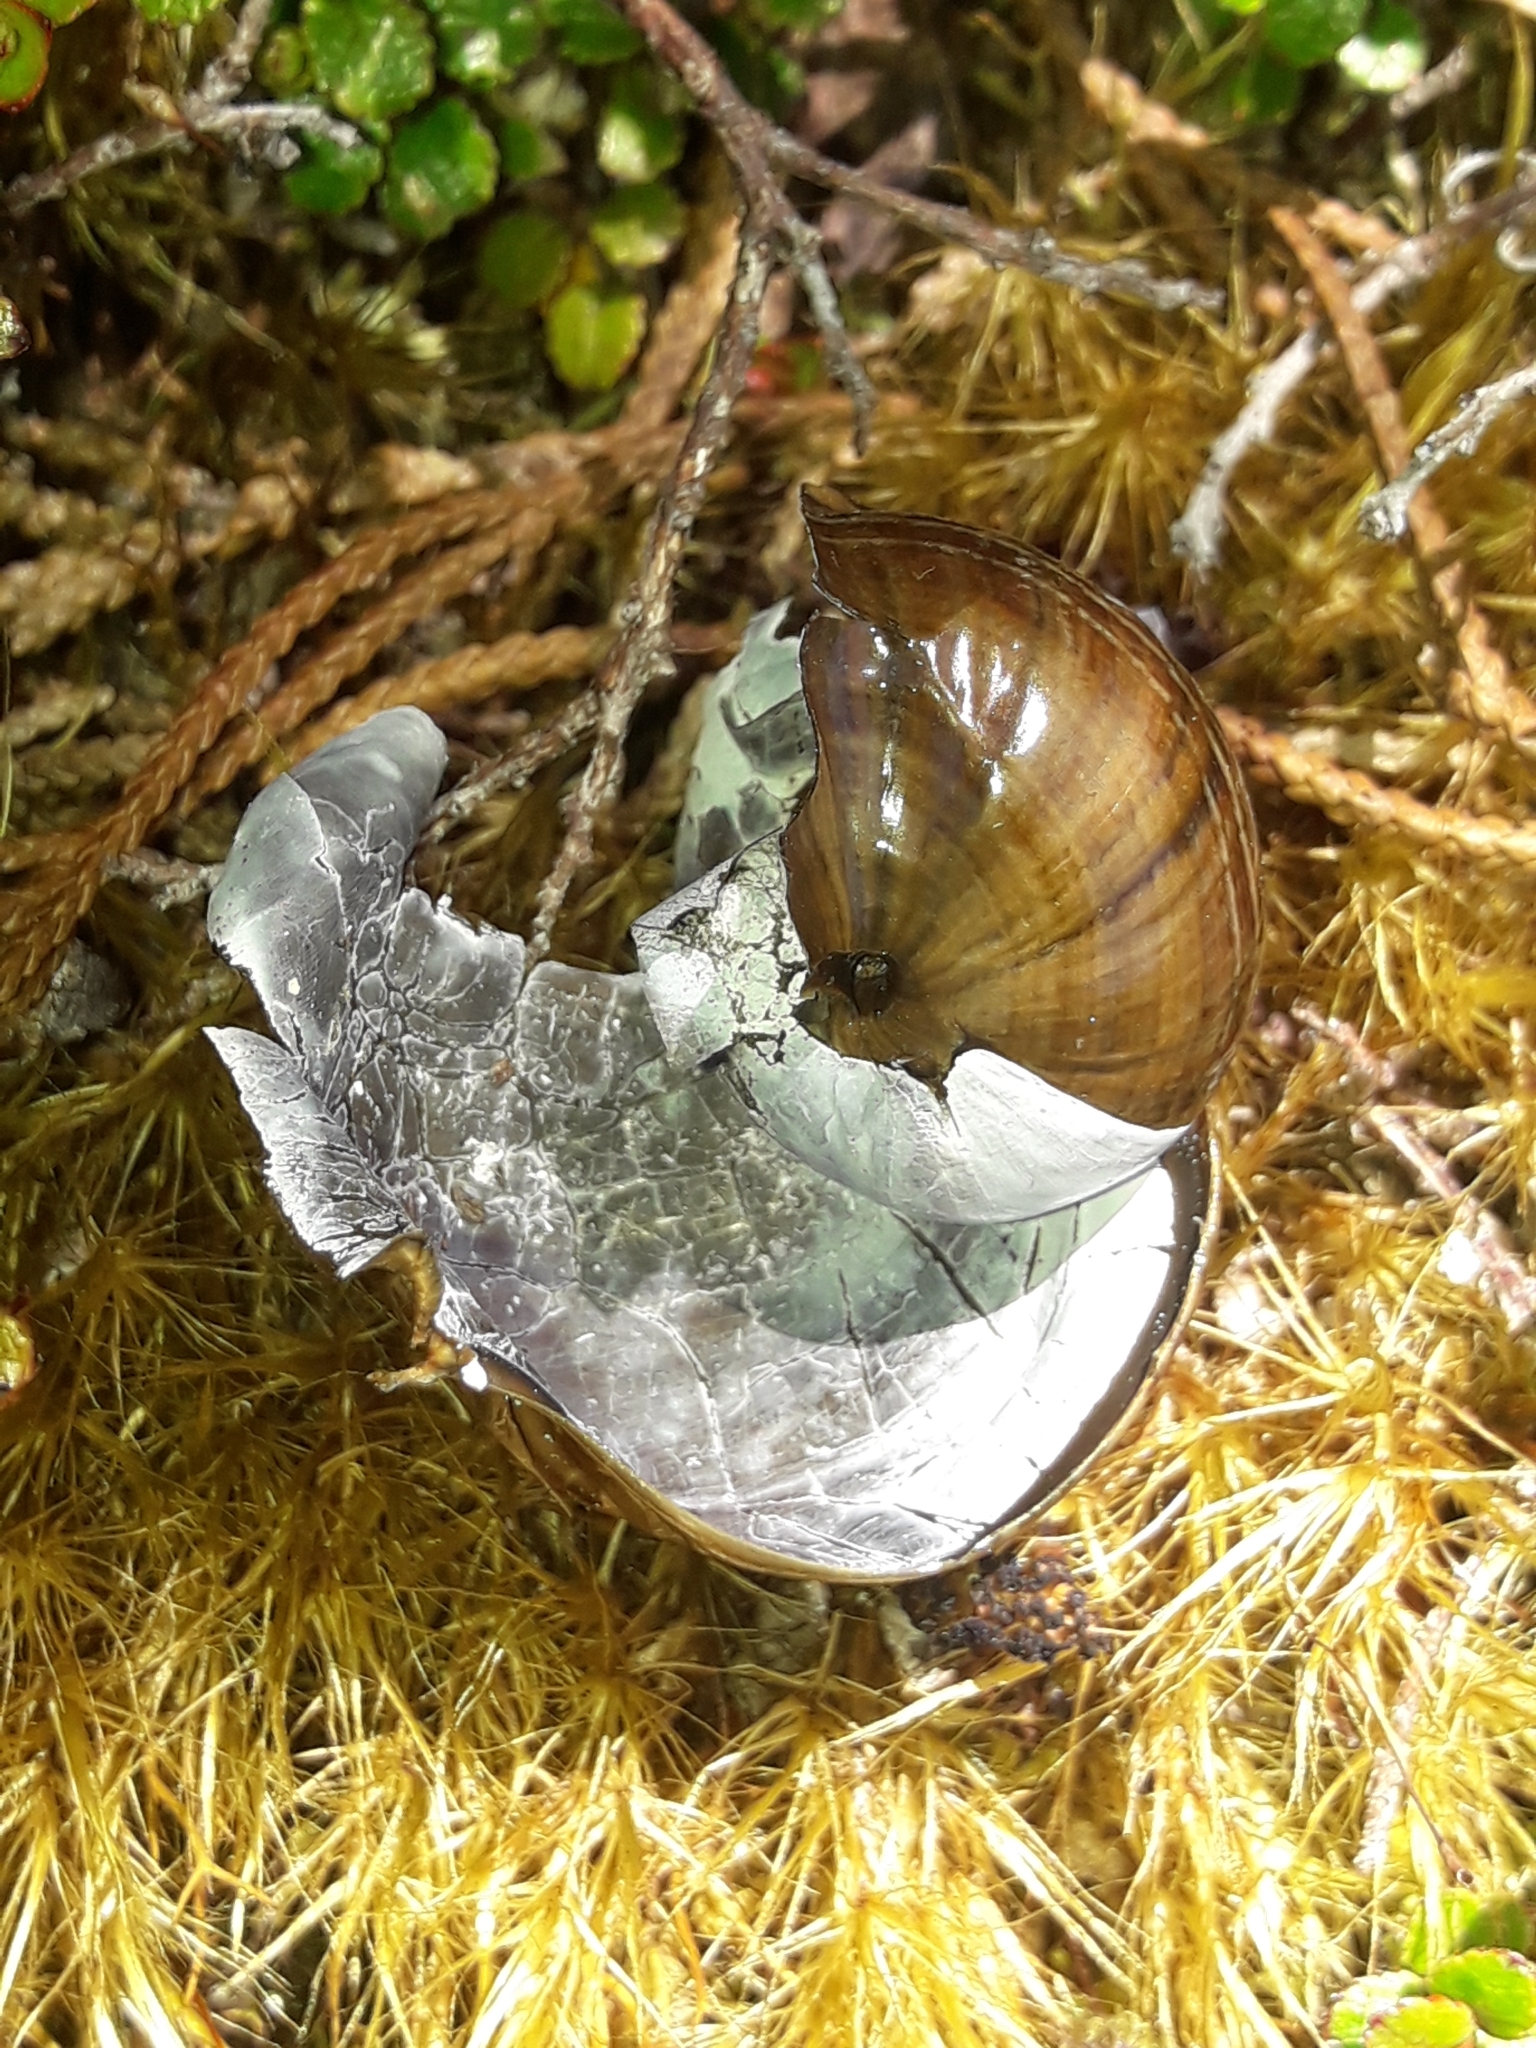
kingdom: Animalia
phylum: Mollusca
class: Gastropoda
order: Stylommatophora
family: Rhytididae
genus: Powelliphanta
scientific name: Powelliphanta marchanti
